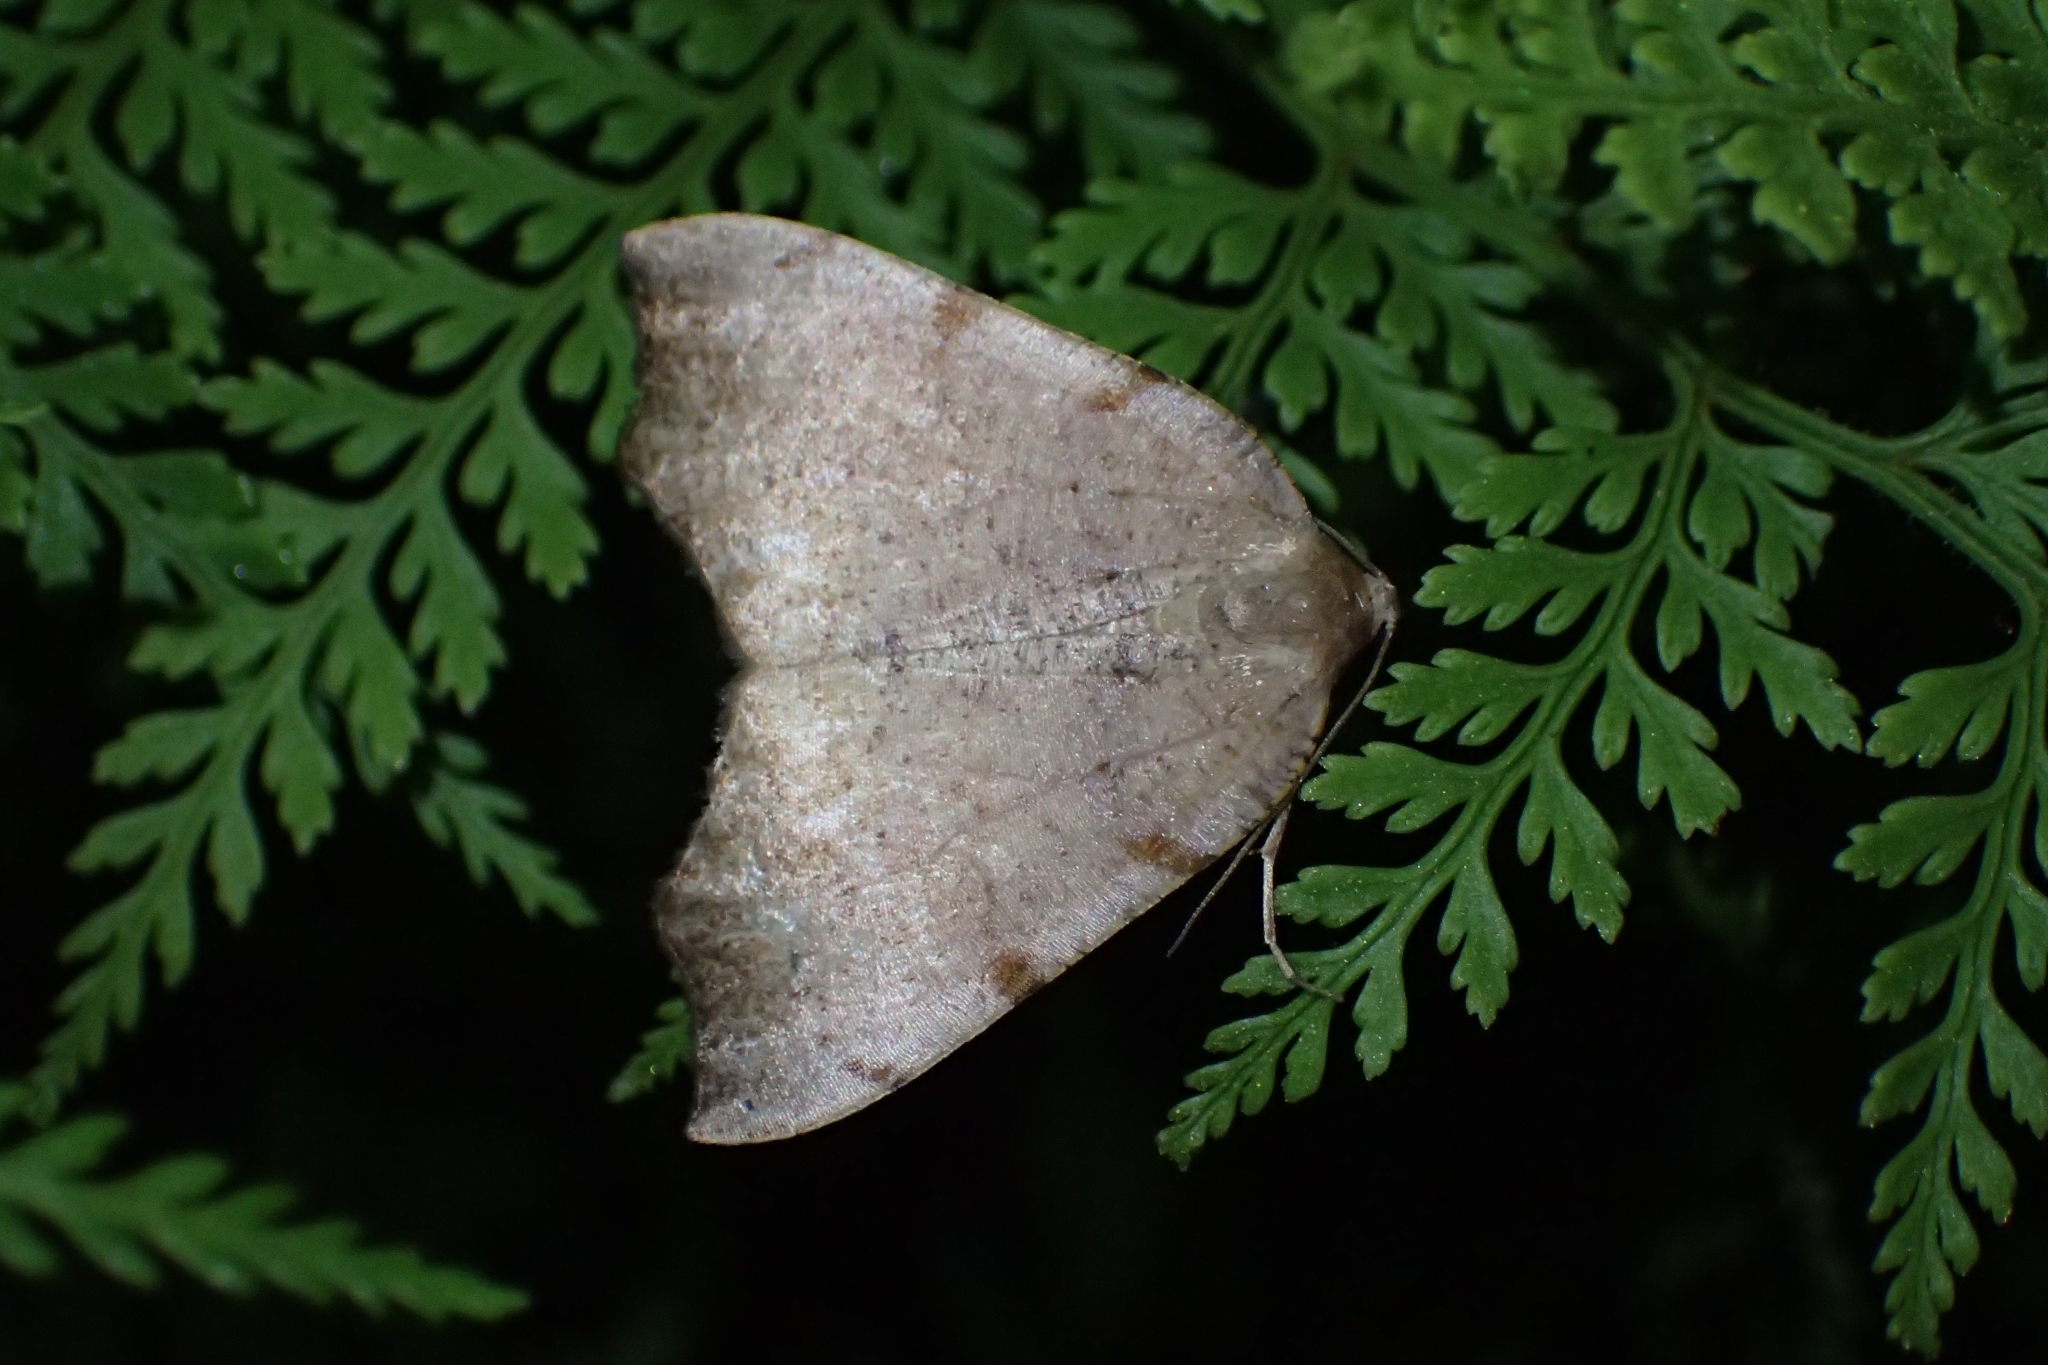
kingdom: Animalia
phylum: Arthropoda
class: Insecta
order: Lepidoptera
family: Geometridae
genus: Sestra
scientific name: Sestra flexata
